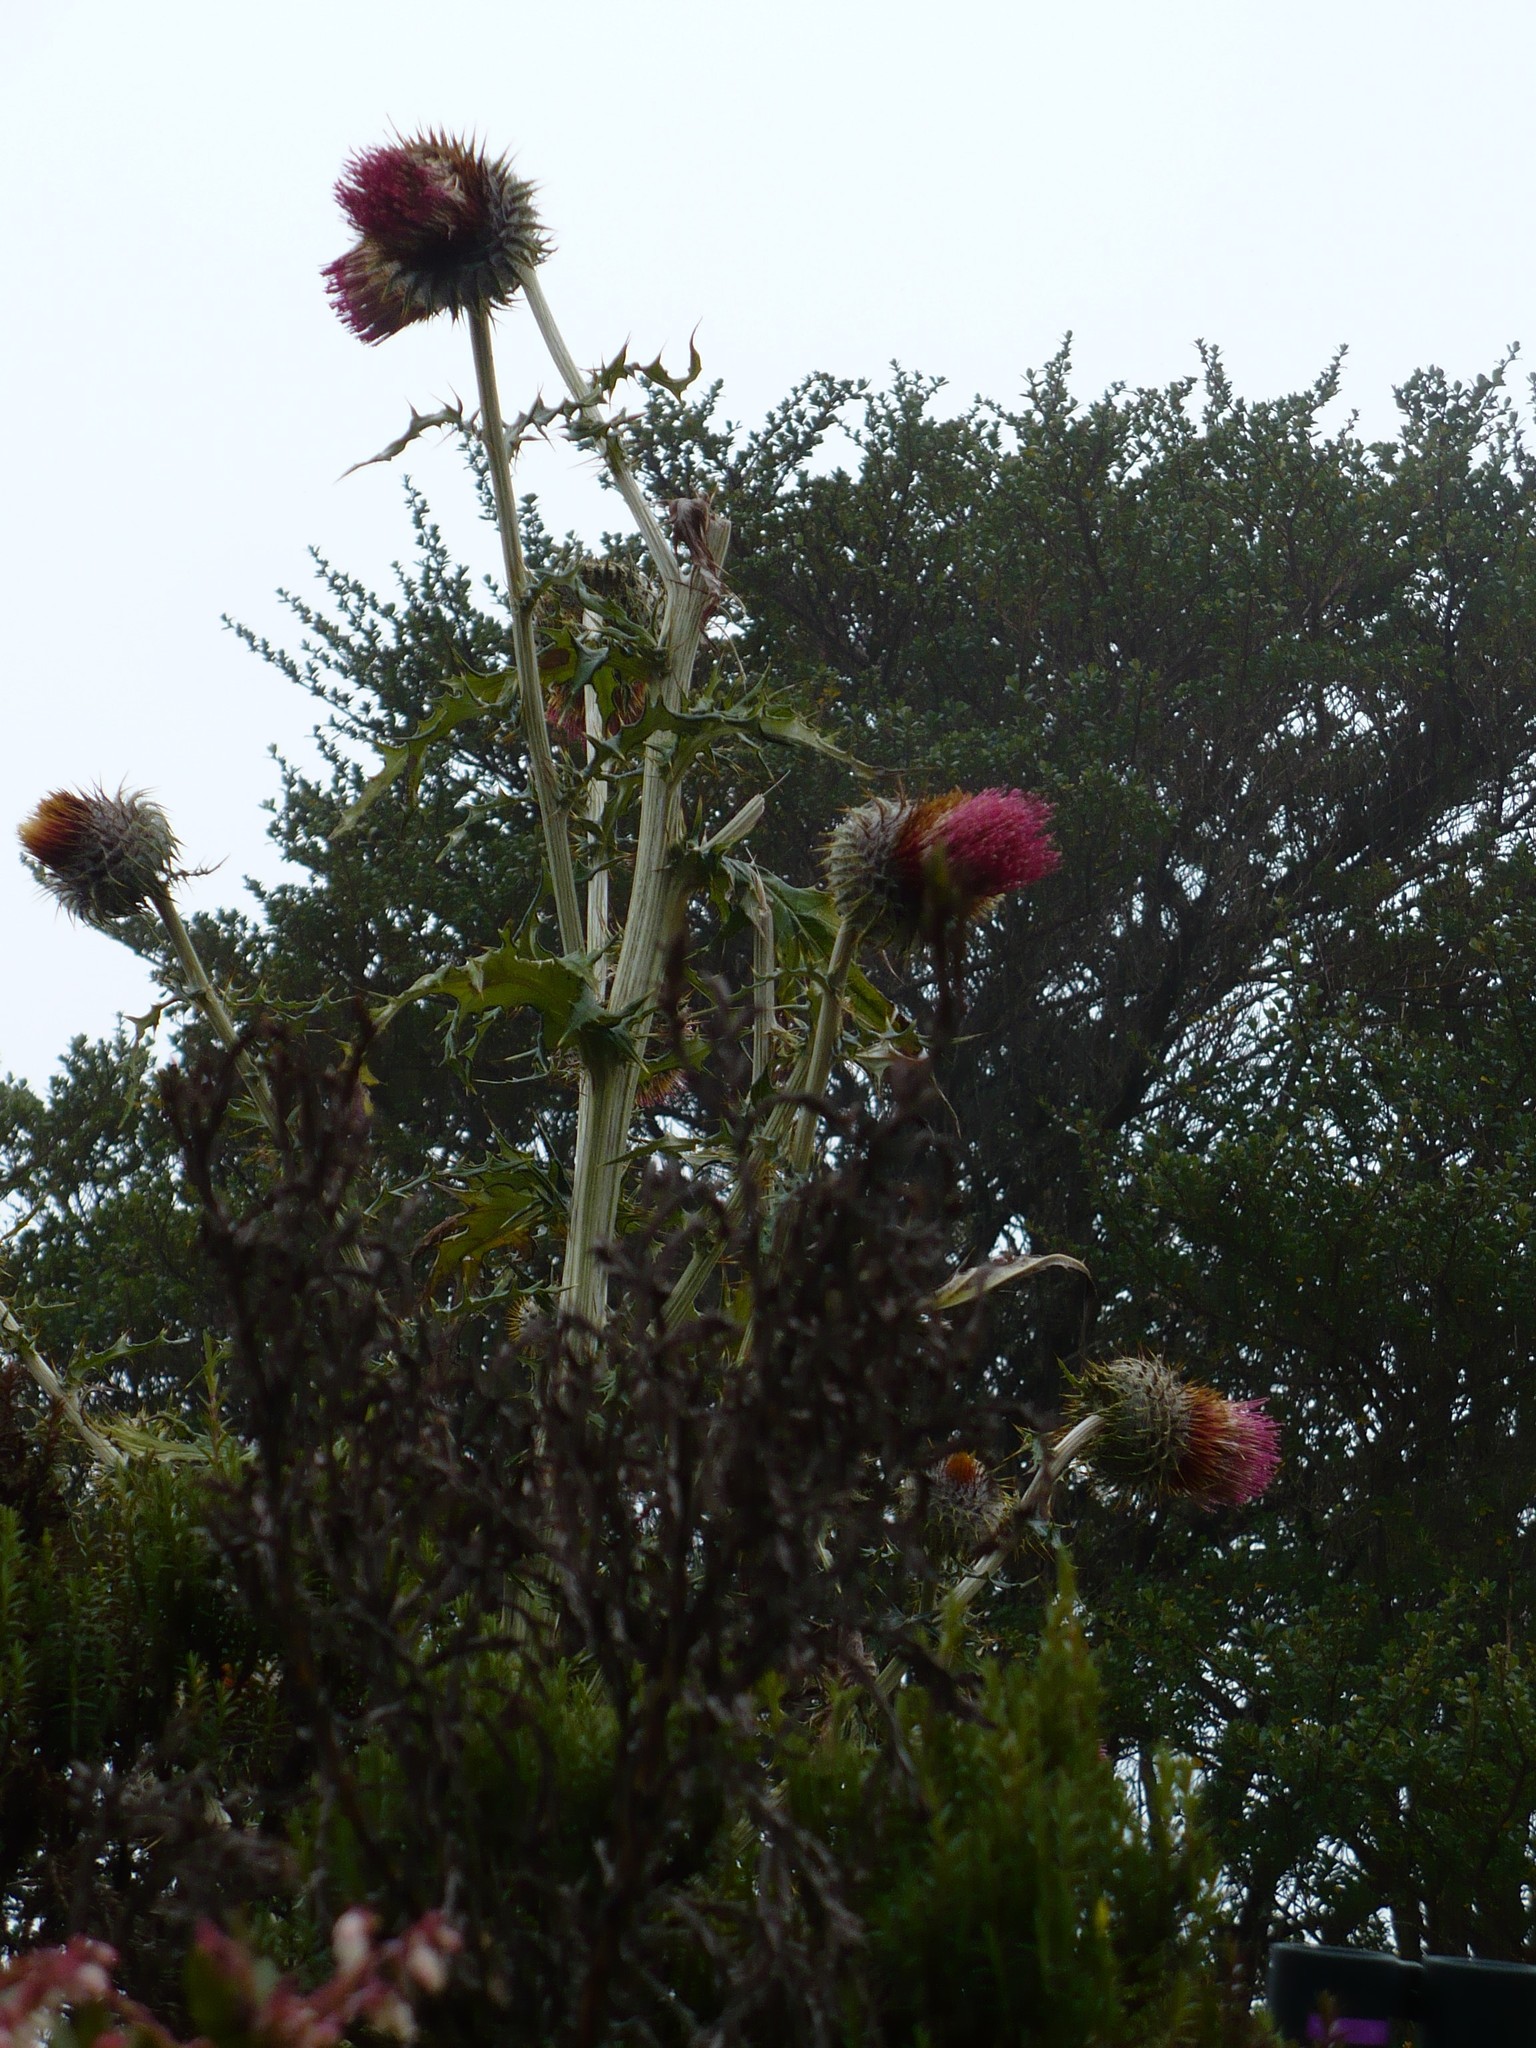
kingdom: Plantae
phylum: Tracheophyta
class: Magnoliopsida
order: Asterales
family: Asteraceae
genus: Cirsium
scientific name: Cirsium subcoriaceum
